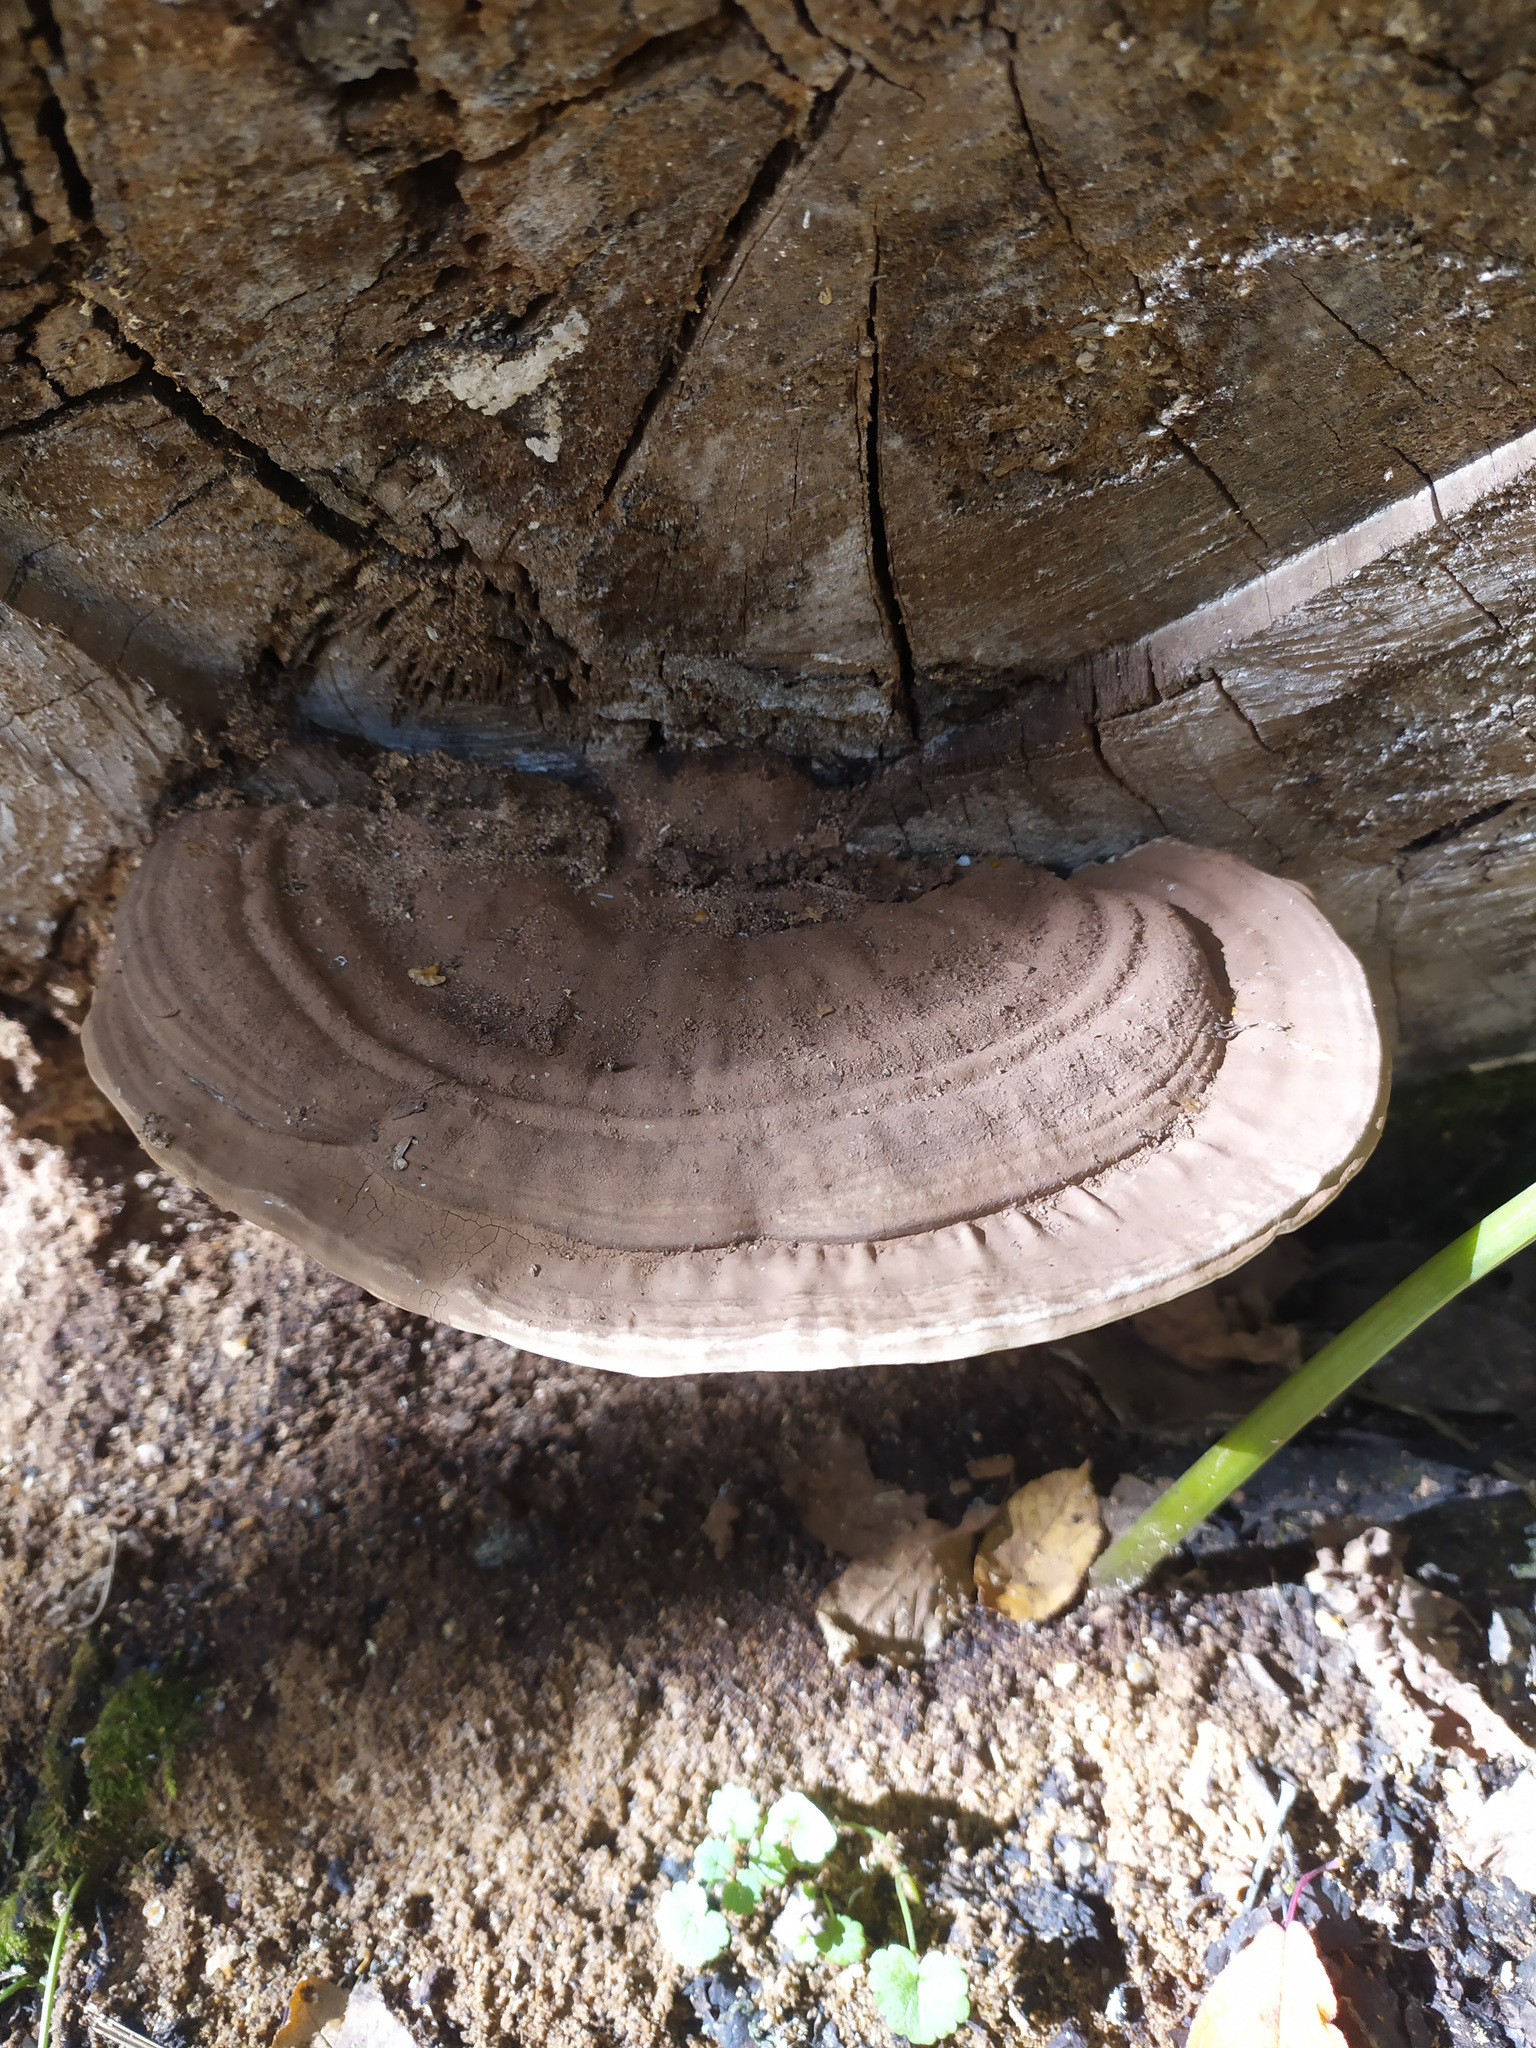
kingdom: Fungi
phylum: Basidiomycota
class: Agaricomycetes
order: Polyporales
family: Polyporaceae
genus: Ganoderma
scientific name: Ganoderma applanatum
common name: Artist's bracket
